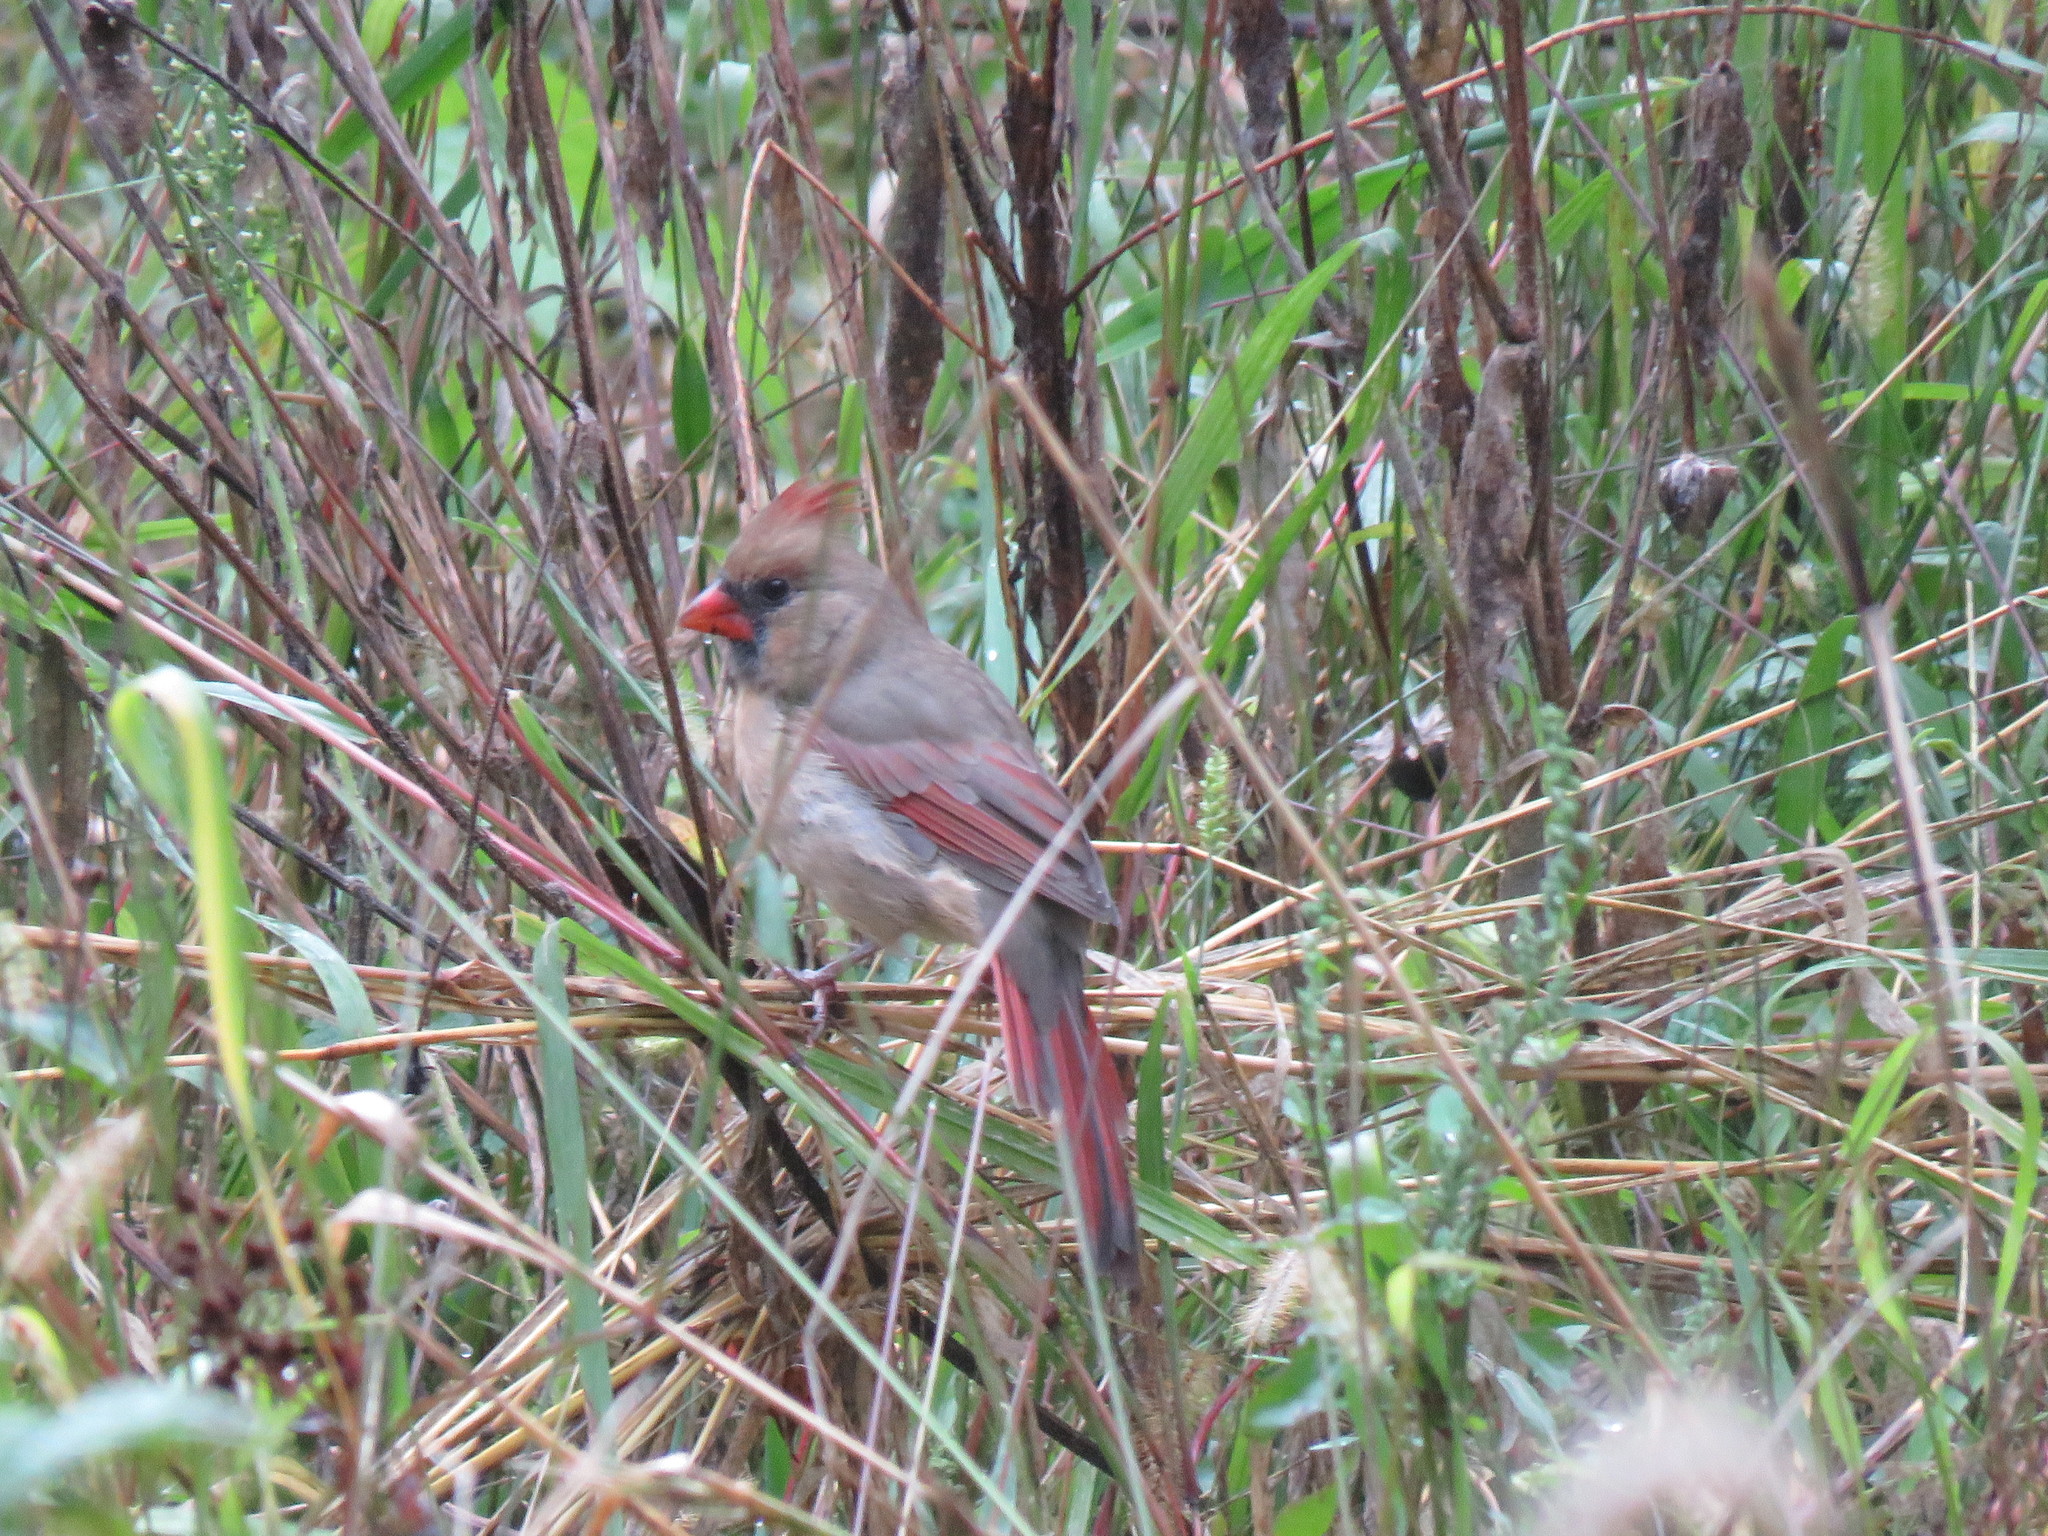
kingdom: Animalia
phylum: Chordata
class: Aves
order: Passeriformes
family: Cardinalidae
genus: Cardinalis
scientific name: Cardinalis cardinalis
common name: Northern cardinal
